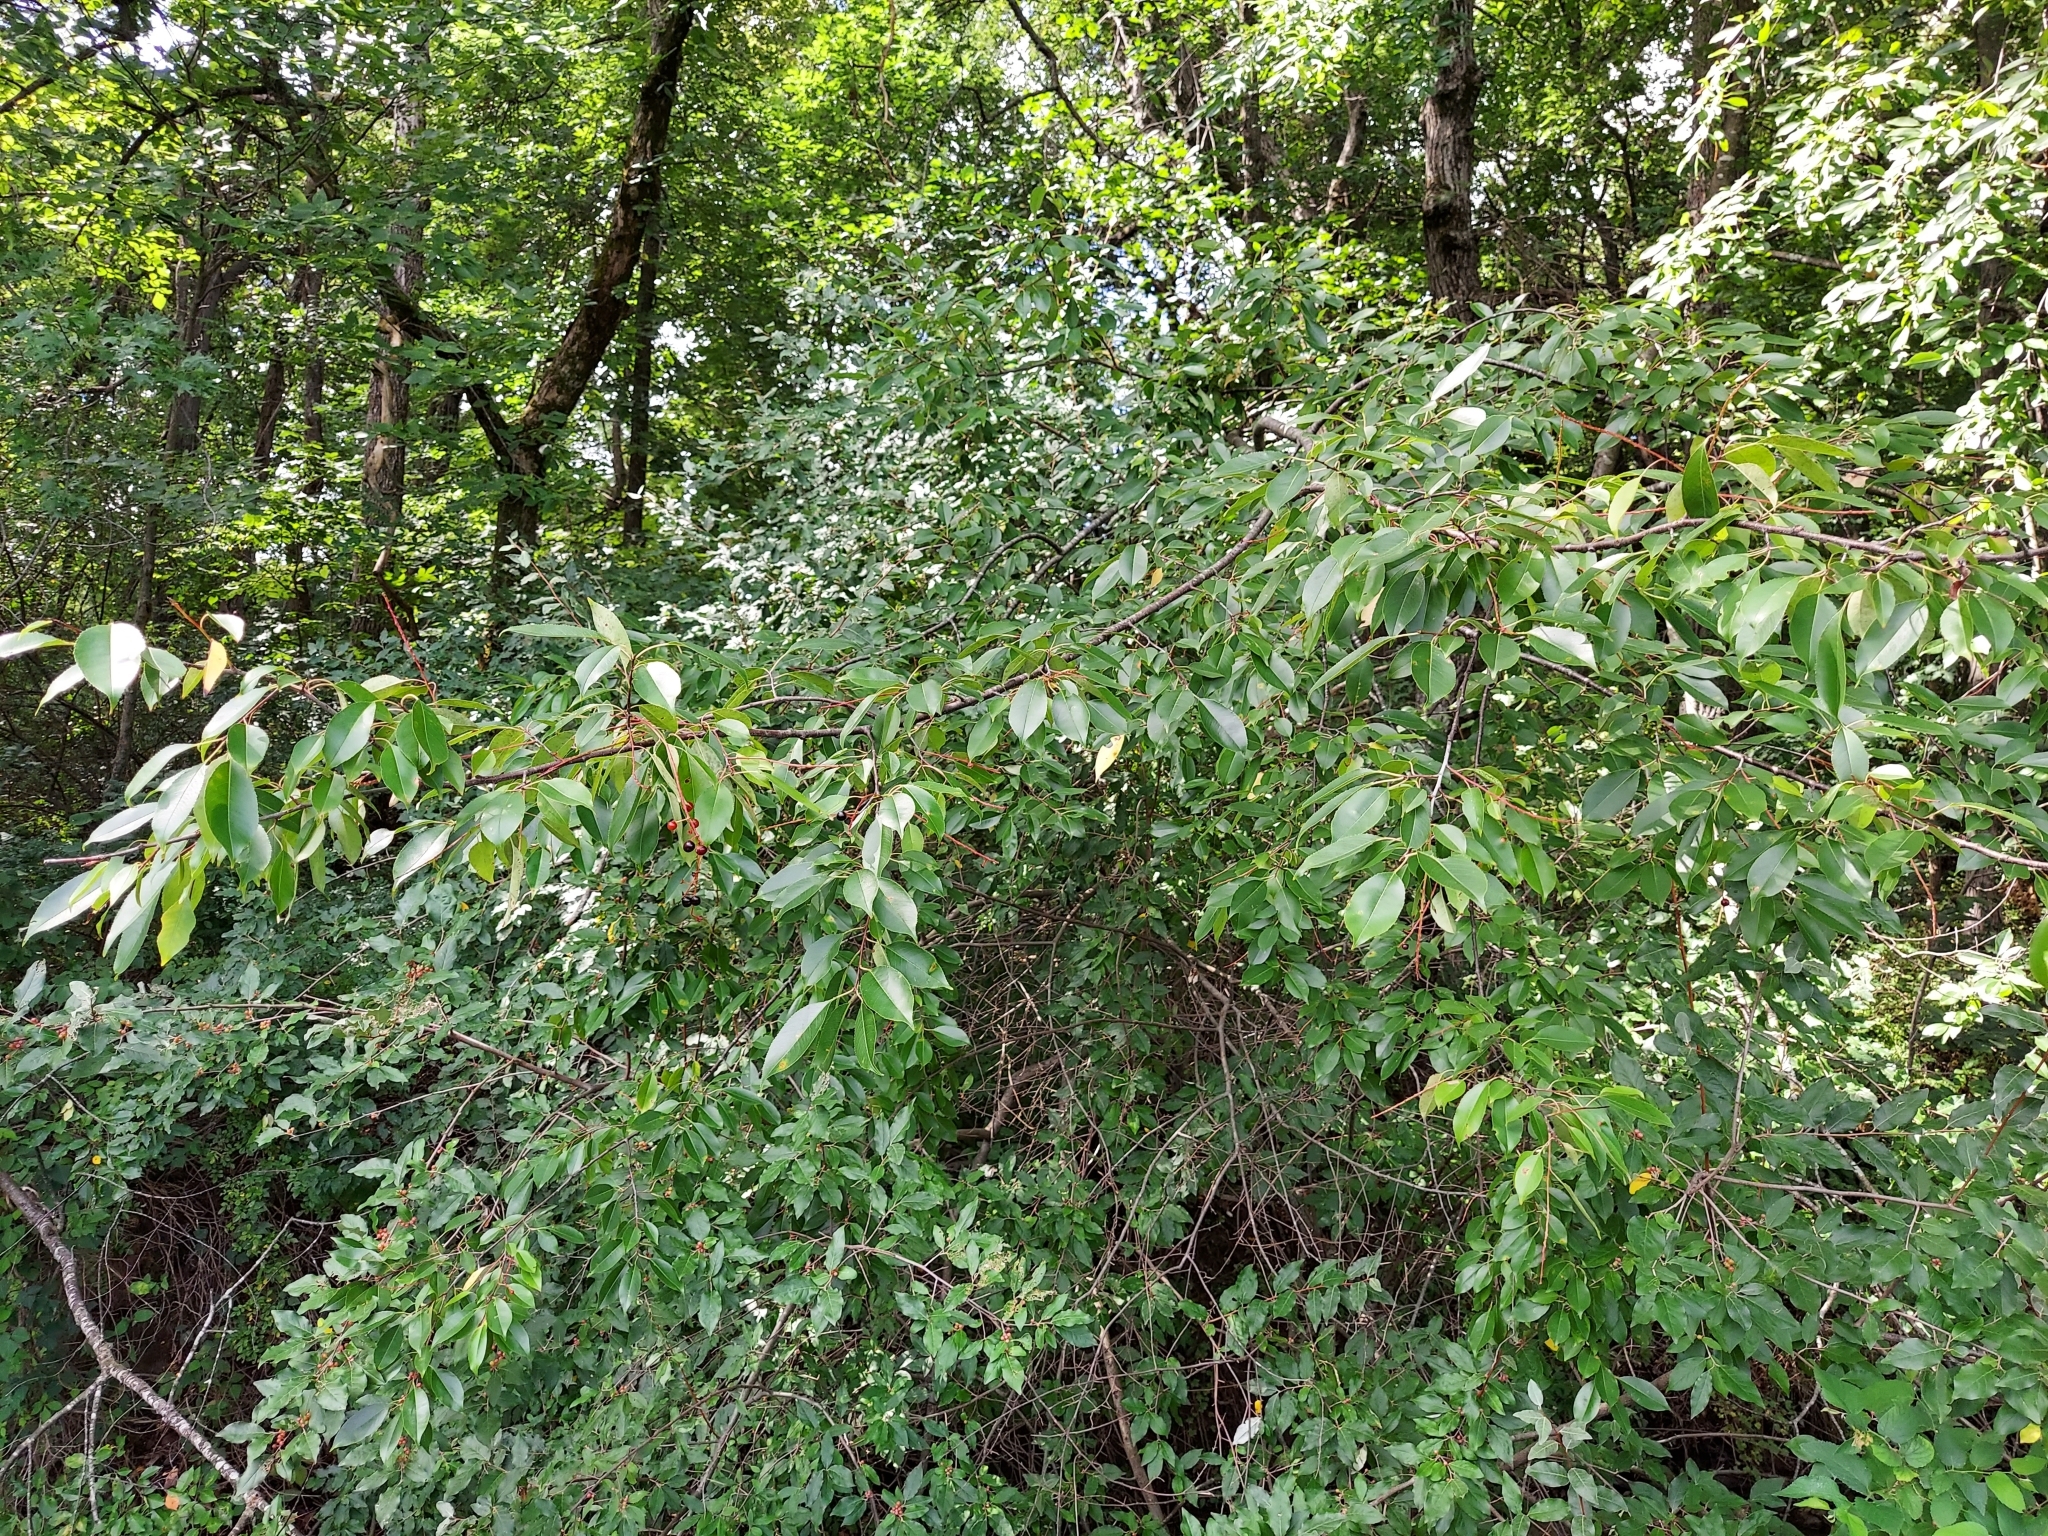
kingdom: Plantae
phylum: Tracheophyta
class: Magnoliopsida
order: Rosales
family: Rosaceae
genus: Prunus
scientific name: Prunus serotina
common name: Black cherry
